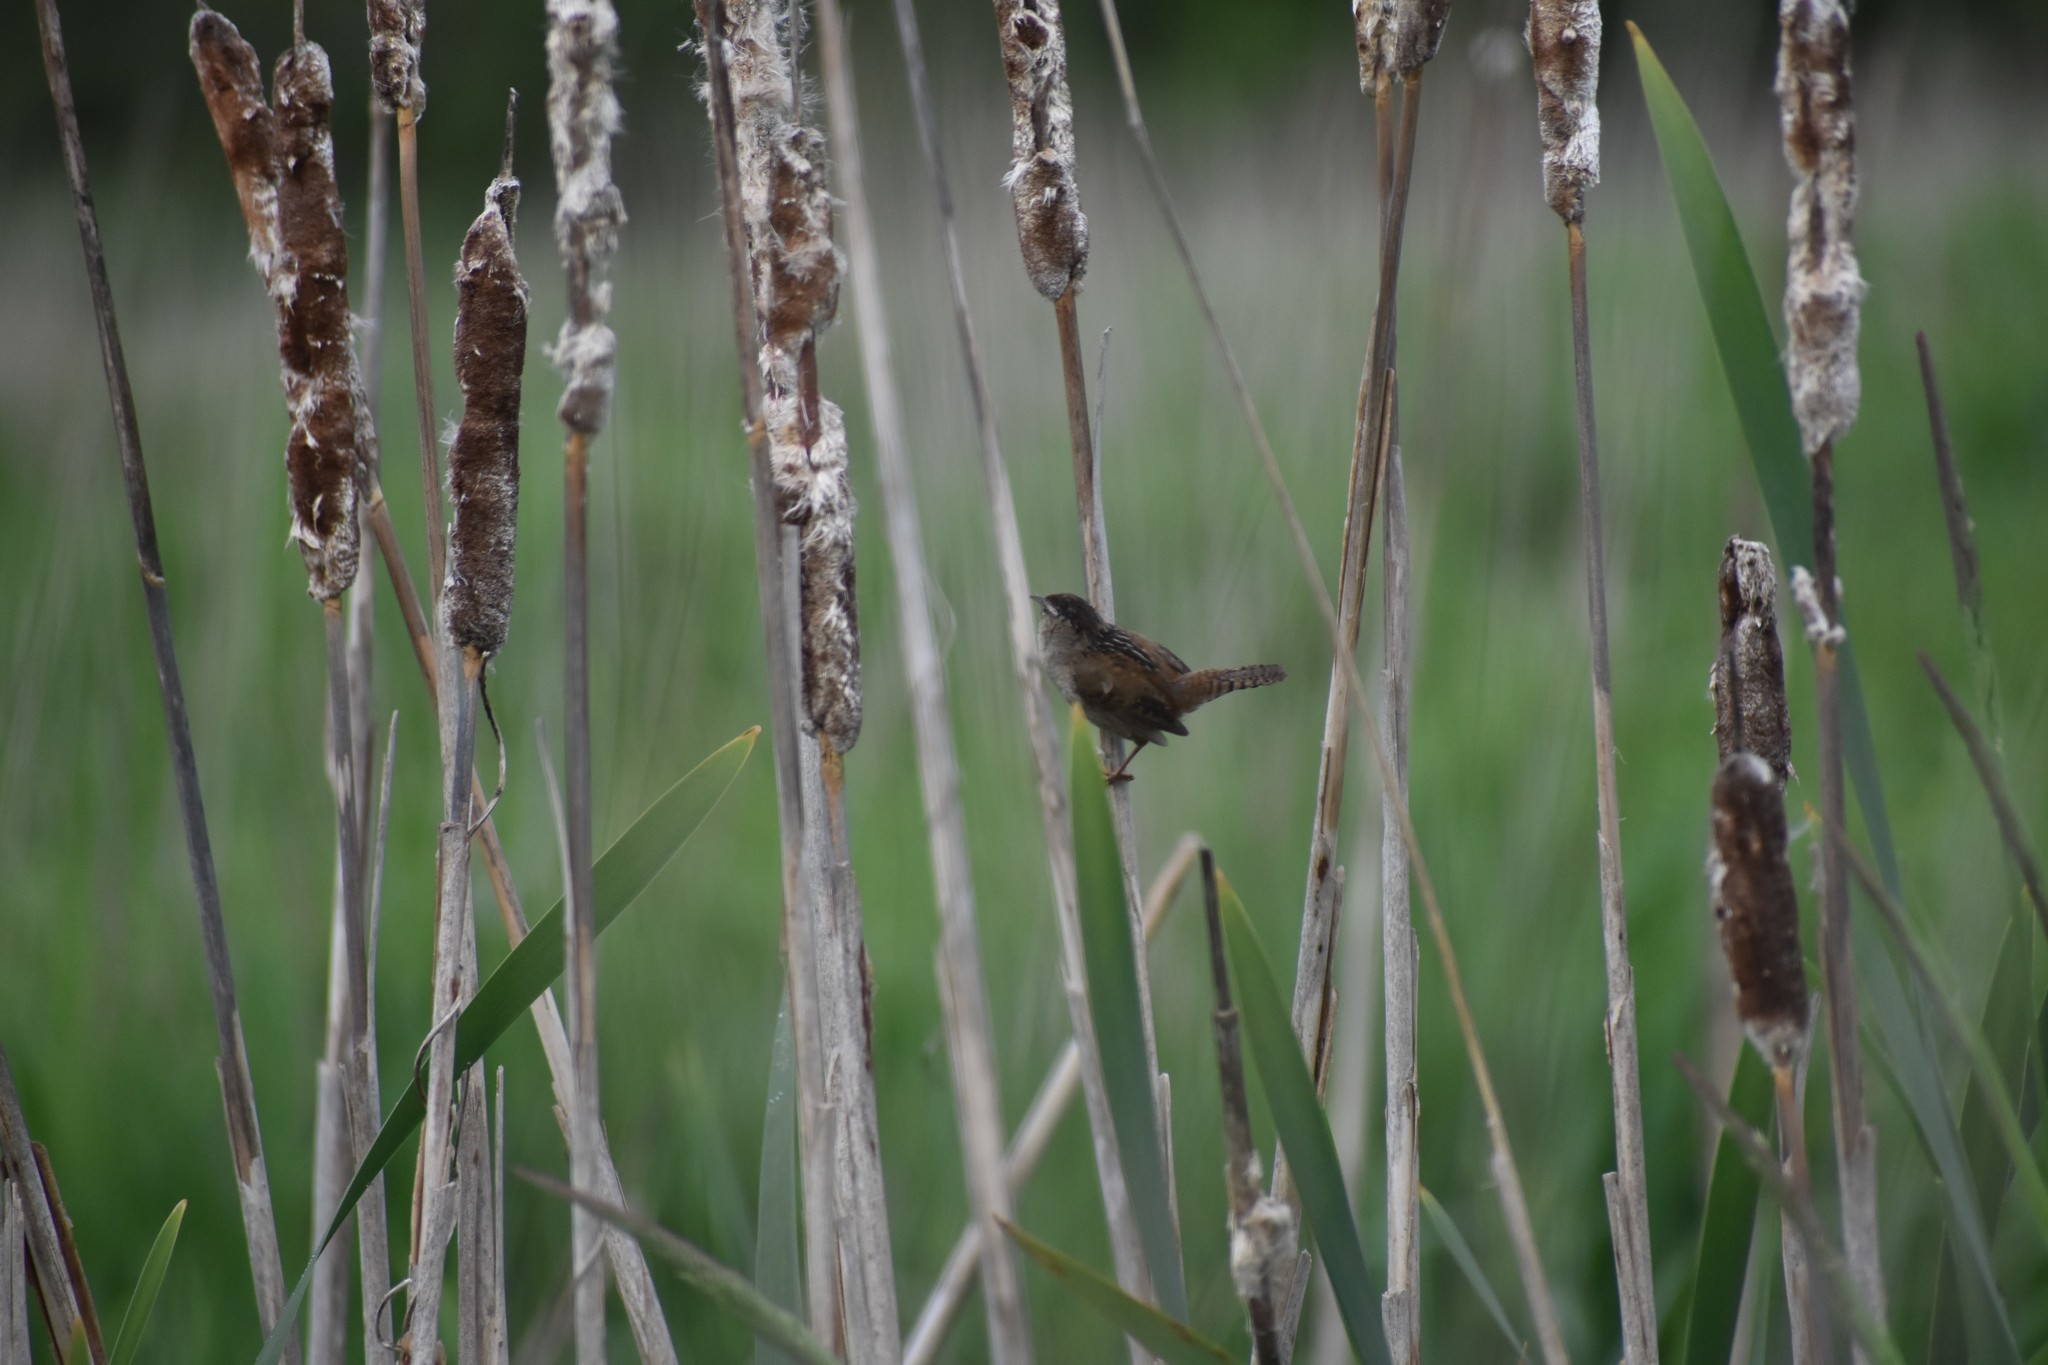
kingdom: Animalia
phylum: Chordata
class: Aves
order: Passeriformes
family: Troglodytidae
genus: Cistothorus
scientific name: Cistothorus palustris
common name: Marsh wren
